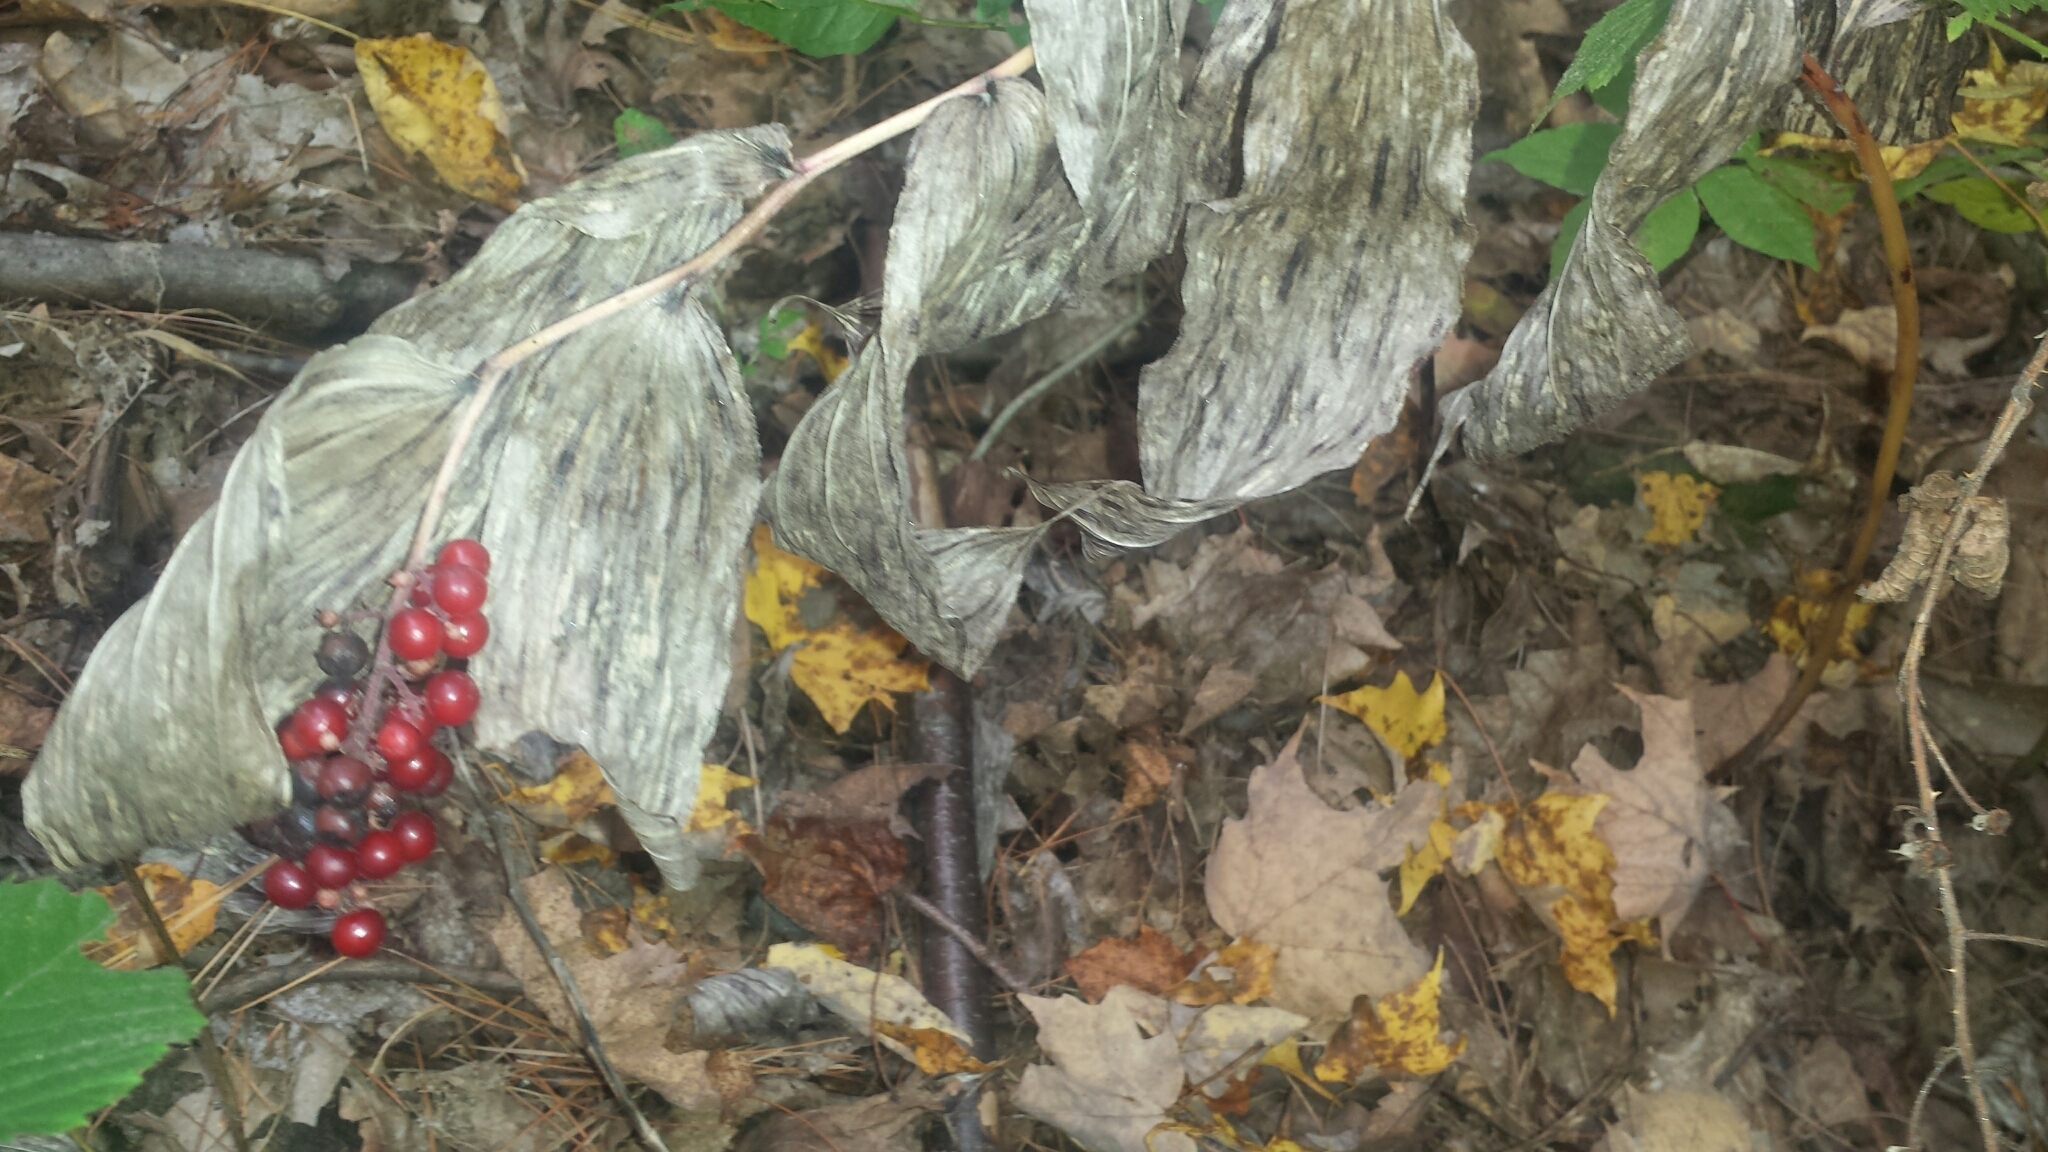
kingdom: Plantae
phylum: Tracheophyta
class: Liliopsida
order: Asparagales
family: Asparagaceae
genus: Maianthemum
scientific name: Maianthemum racemosum
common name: False spikenard
